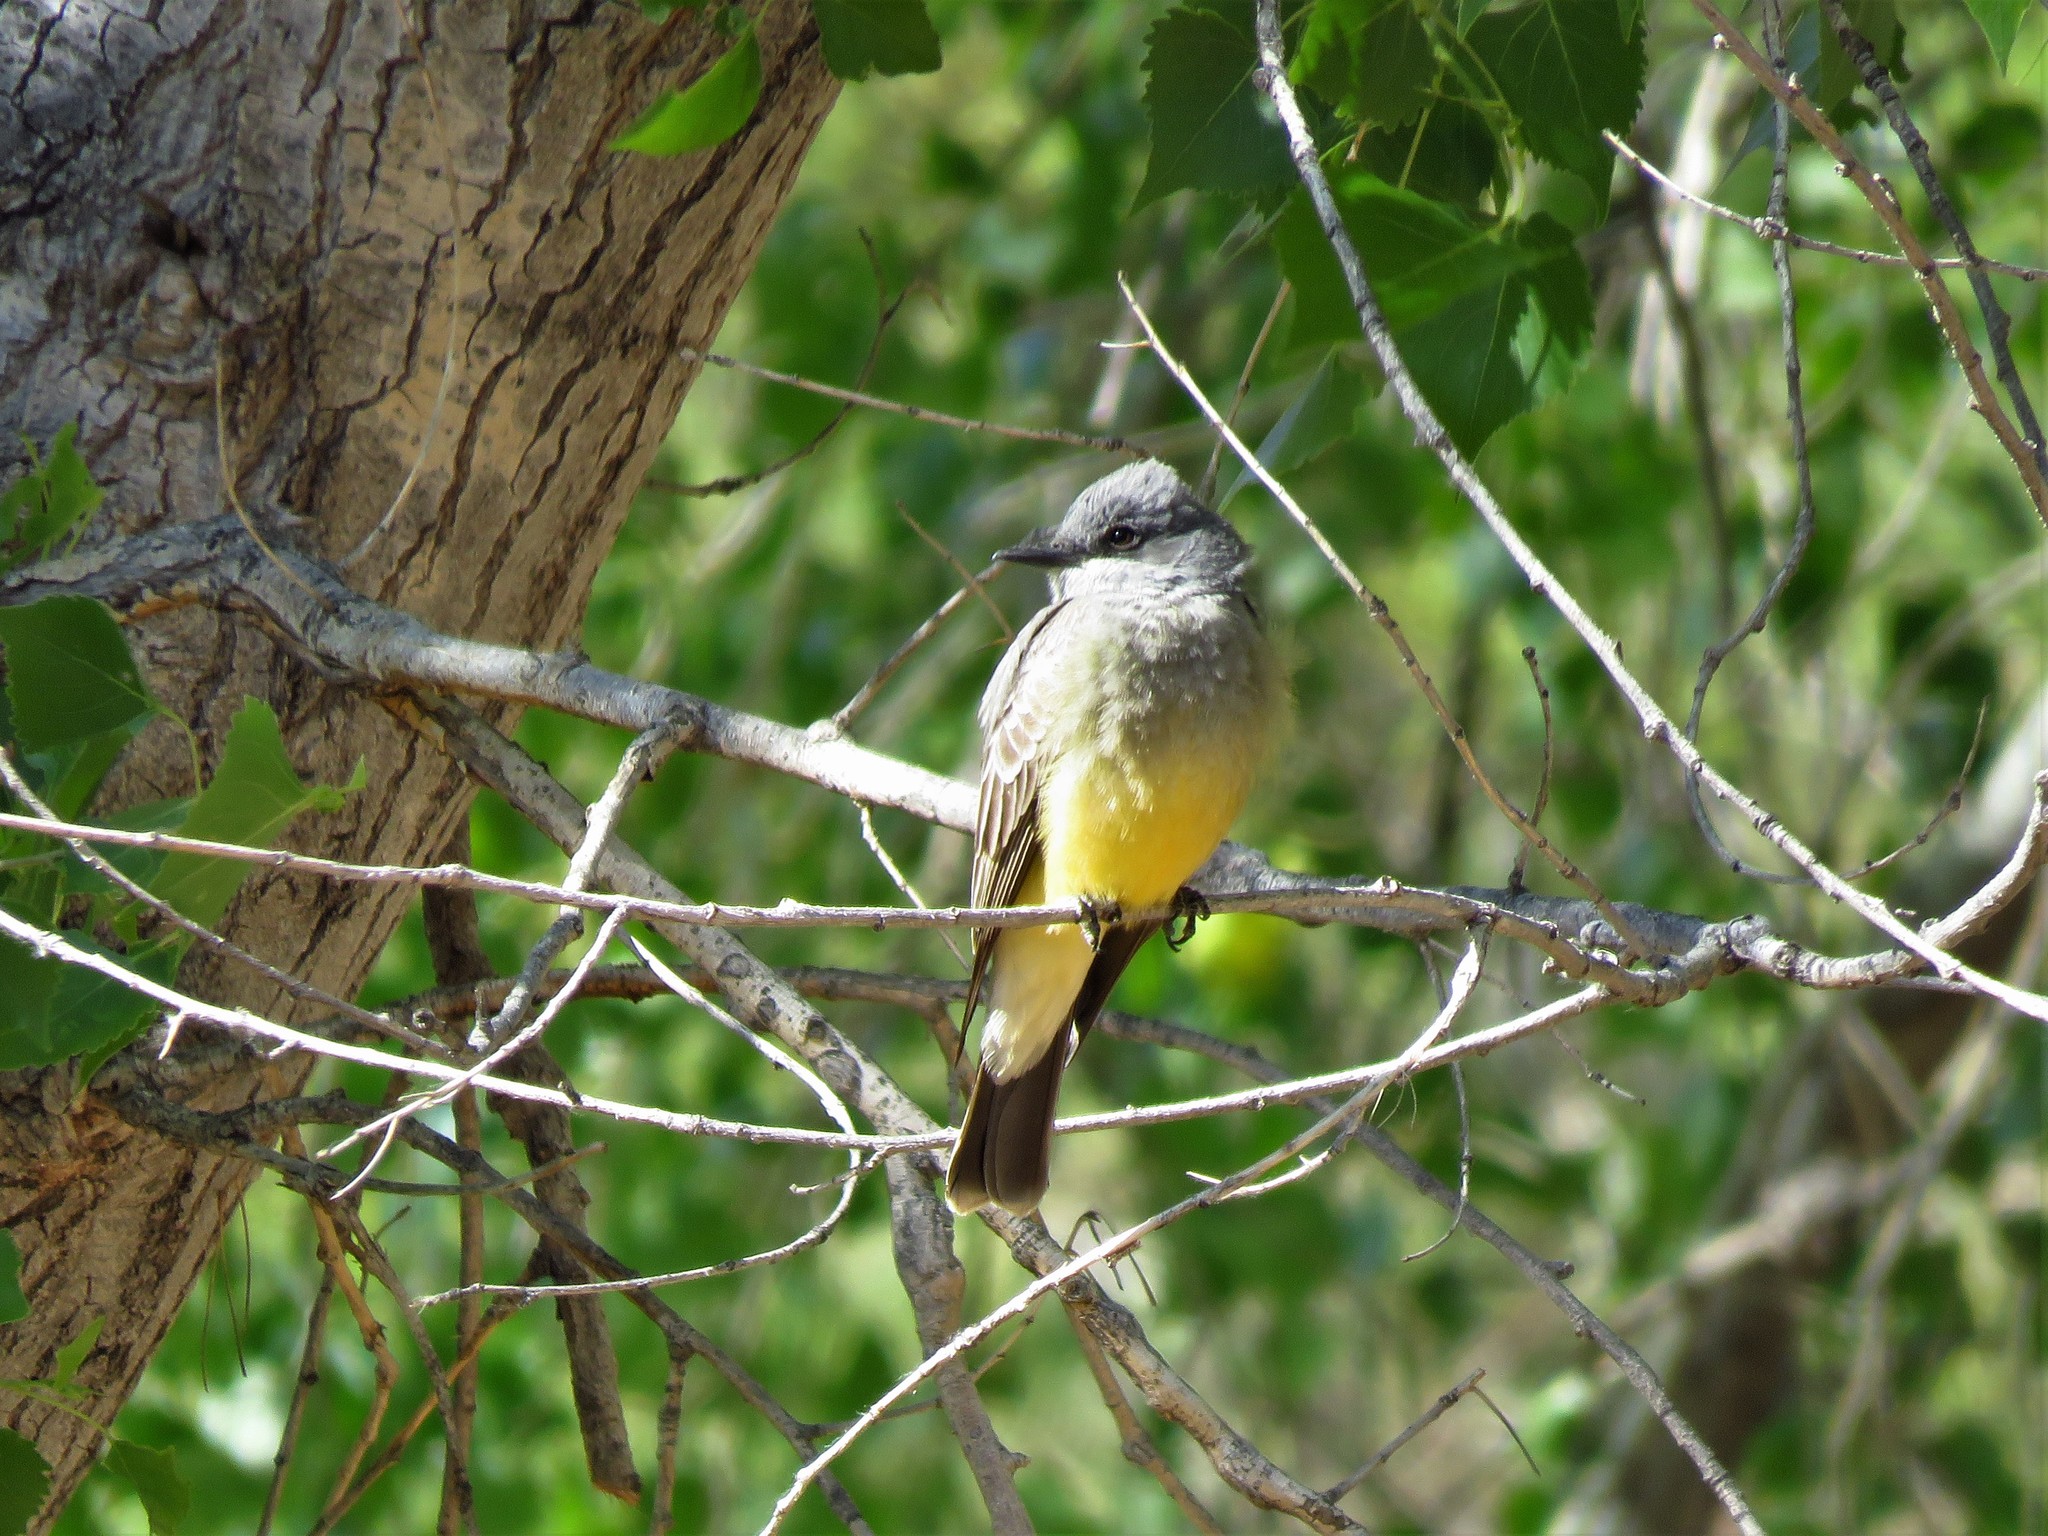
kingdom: Animalia
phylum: Chordata
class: Aves
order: Passeriformes
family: Tyrannidae
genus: Tyrannus
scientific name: Tyrannus vociferans
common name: Cassin's kingbird
